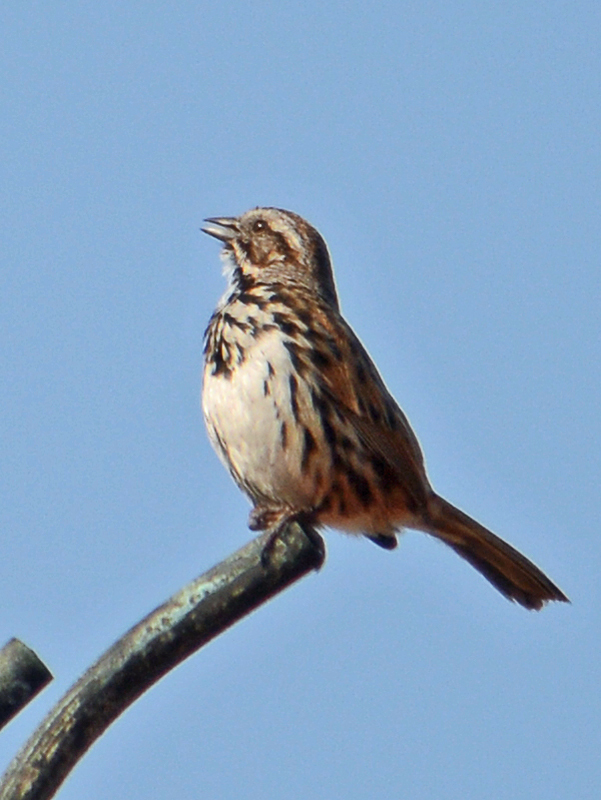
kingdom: Animalia
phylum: Chordata
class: Aves
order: Passeriformes
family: Passerellidae
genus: Melospiza
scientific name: Melospiza melodia
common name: Song sparrow
